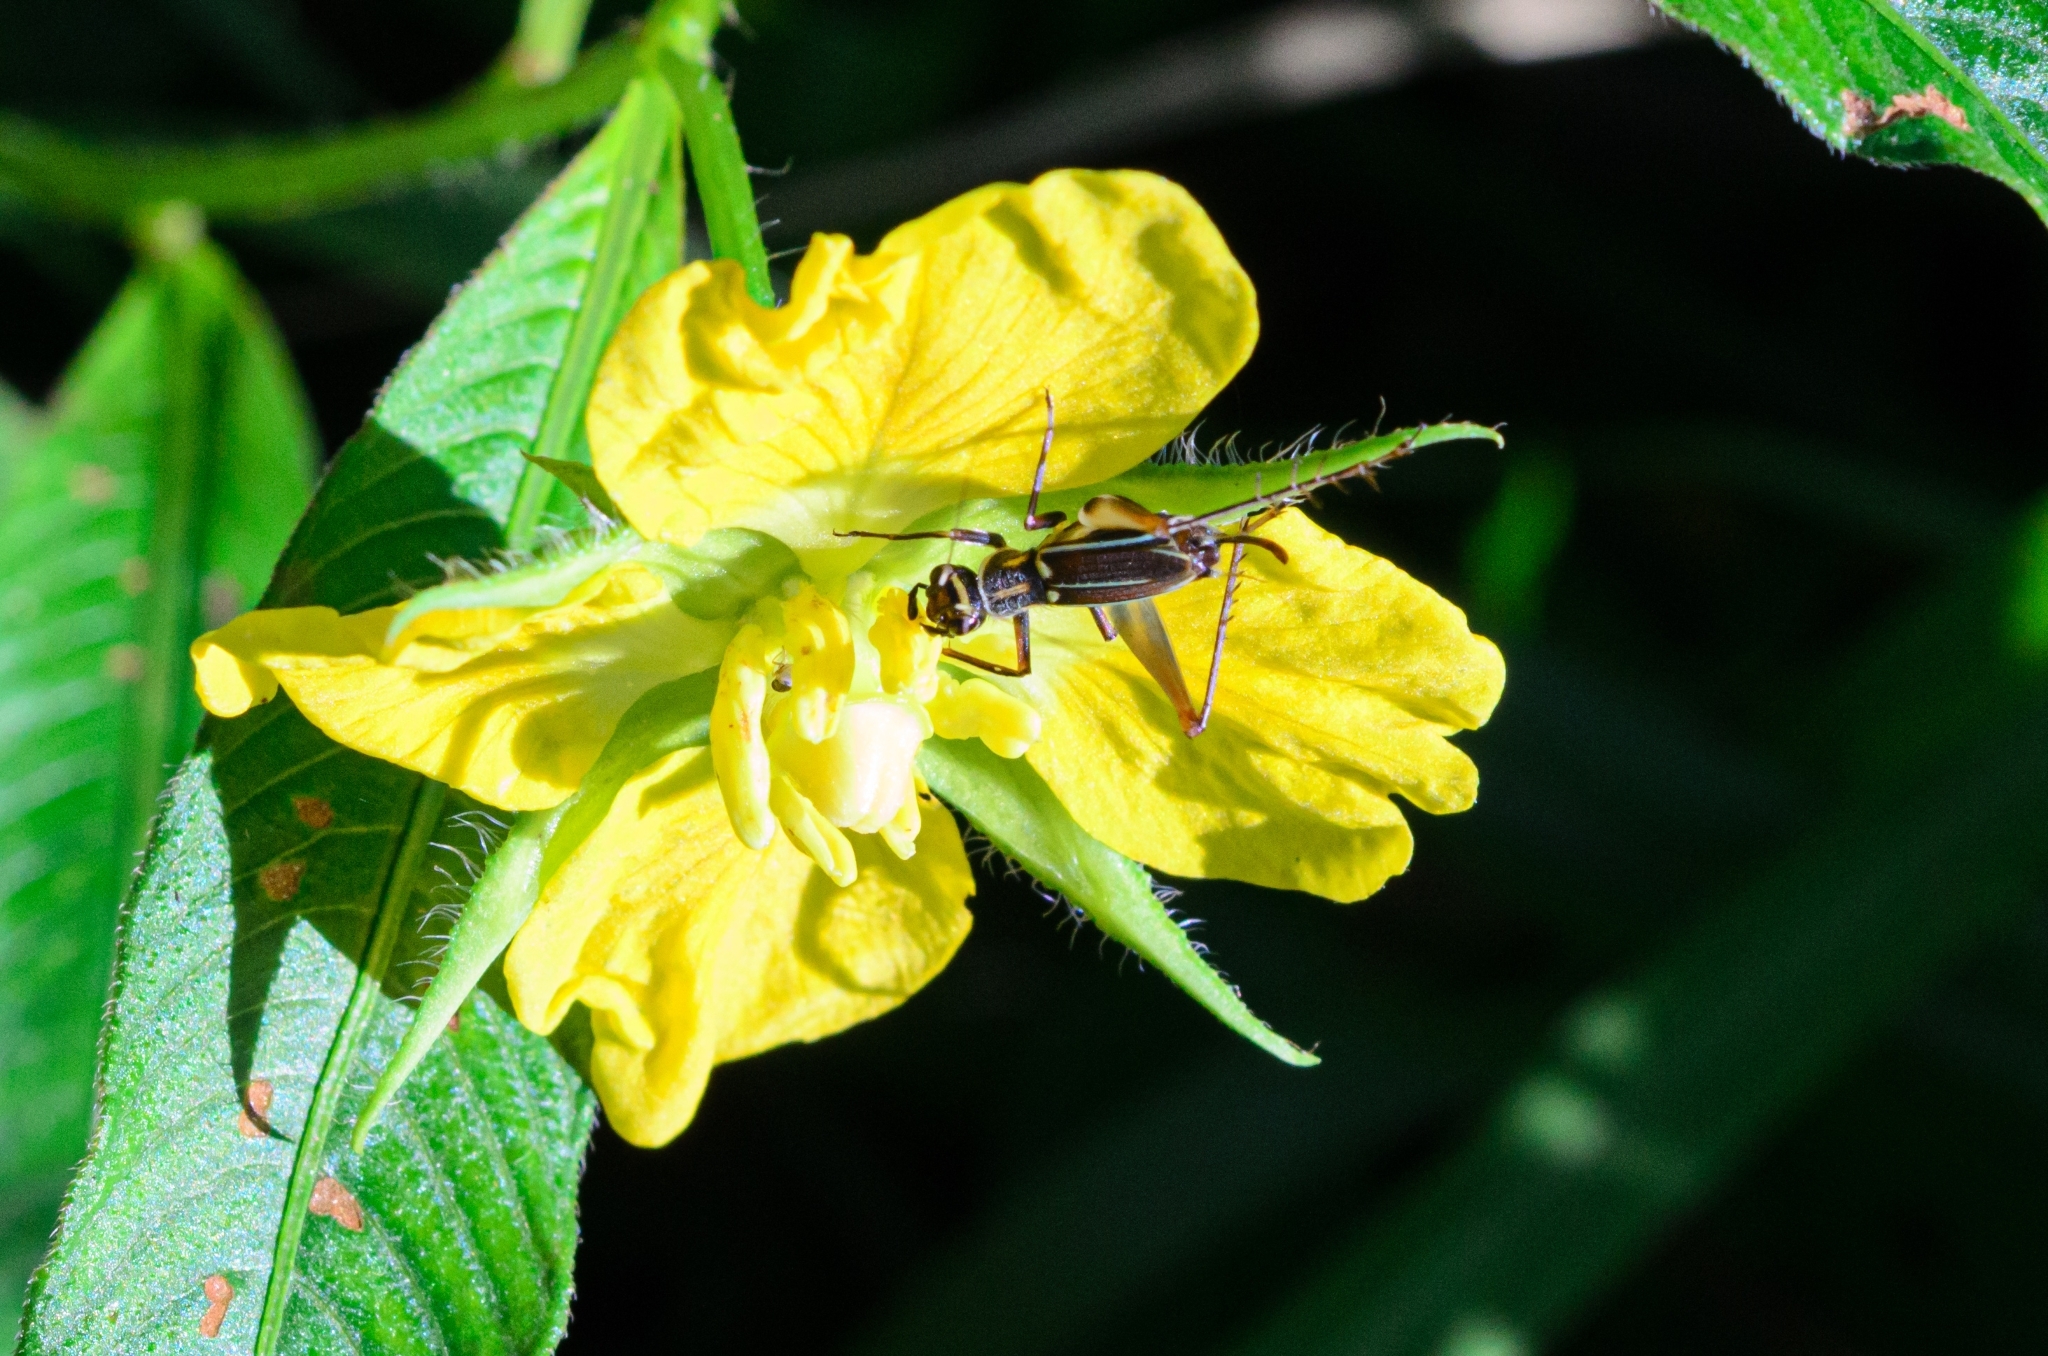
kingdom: Animalia
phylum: Arthropoda
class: Insecta
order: Orthoptera
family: Trigonidiidae
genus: Phylloscyrtus
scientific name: Phylloscyrtus amoenus
